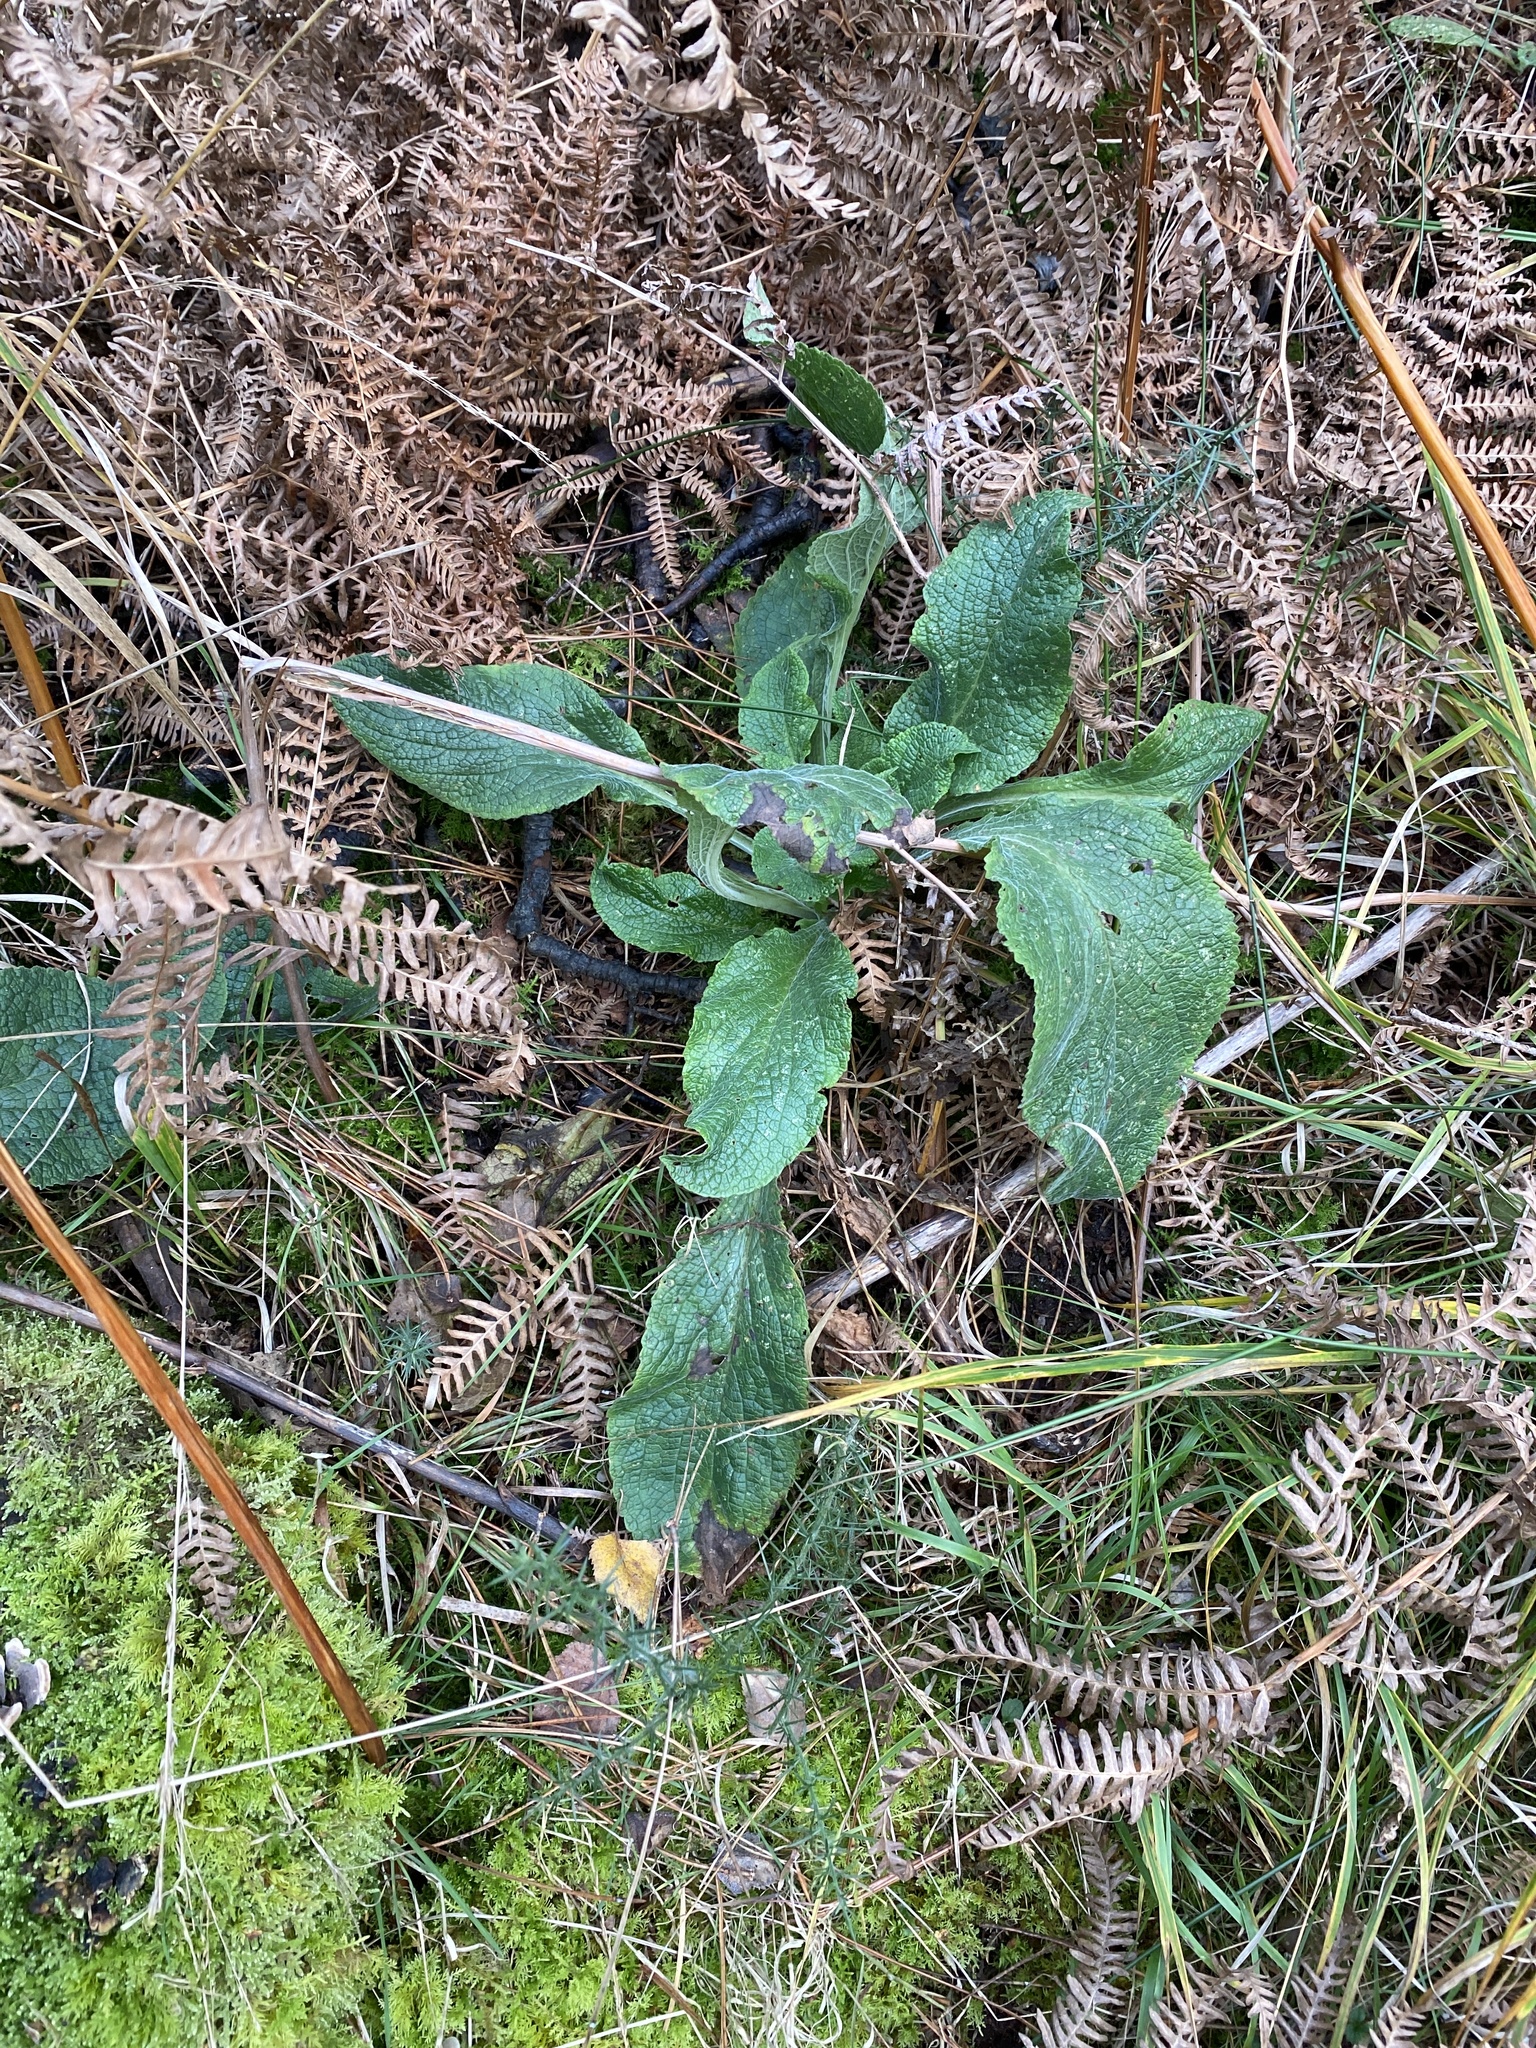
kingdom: Plantae
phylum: Tracheophyta
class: Magnoliopsida
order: Lamiales
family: Plantaginaceae
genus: Digitalis
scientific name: Digitalis purpurea
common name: Foxglove
